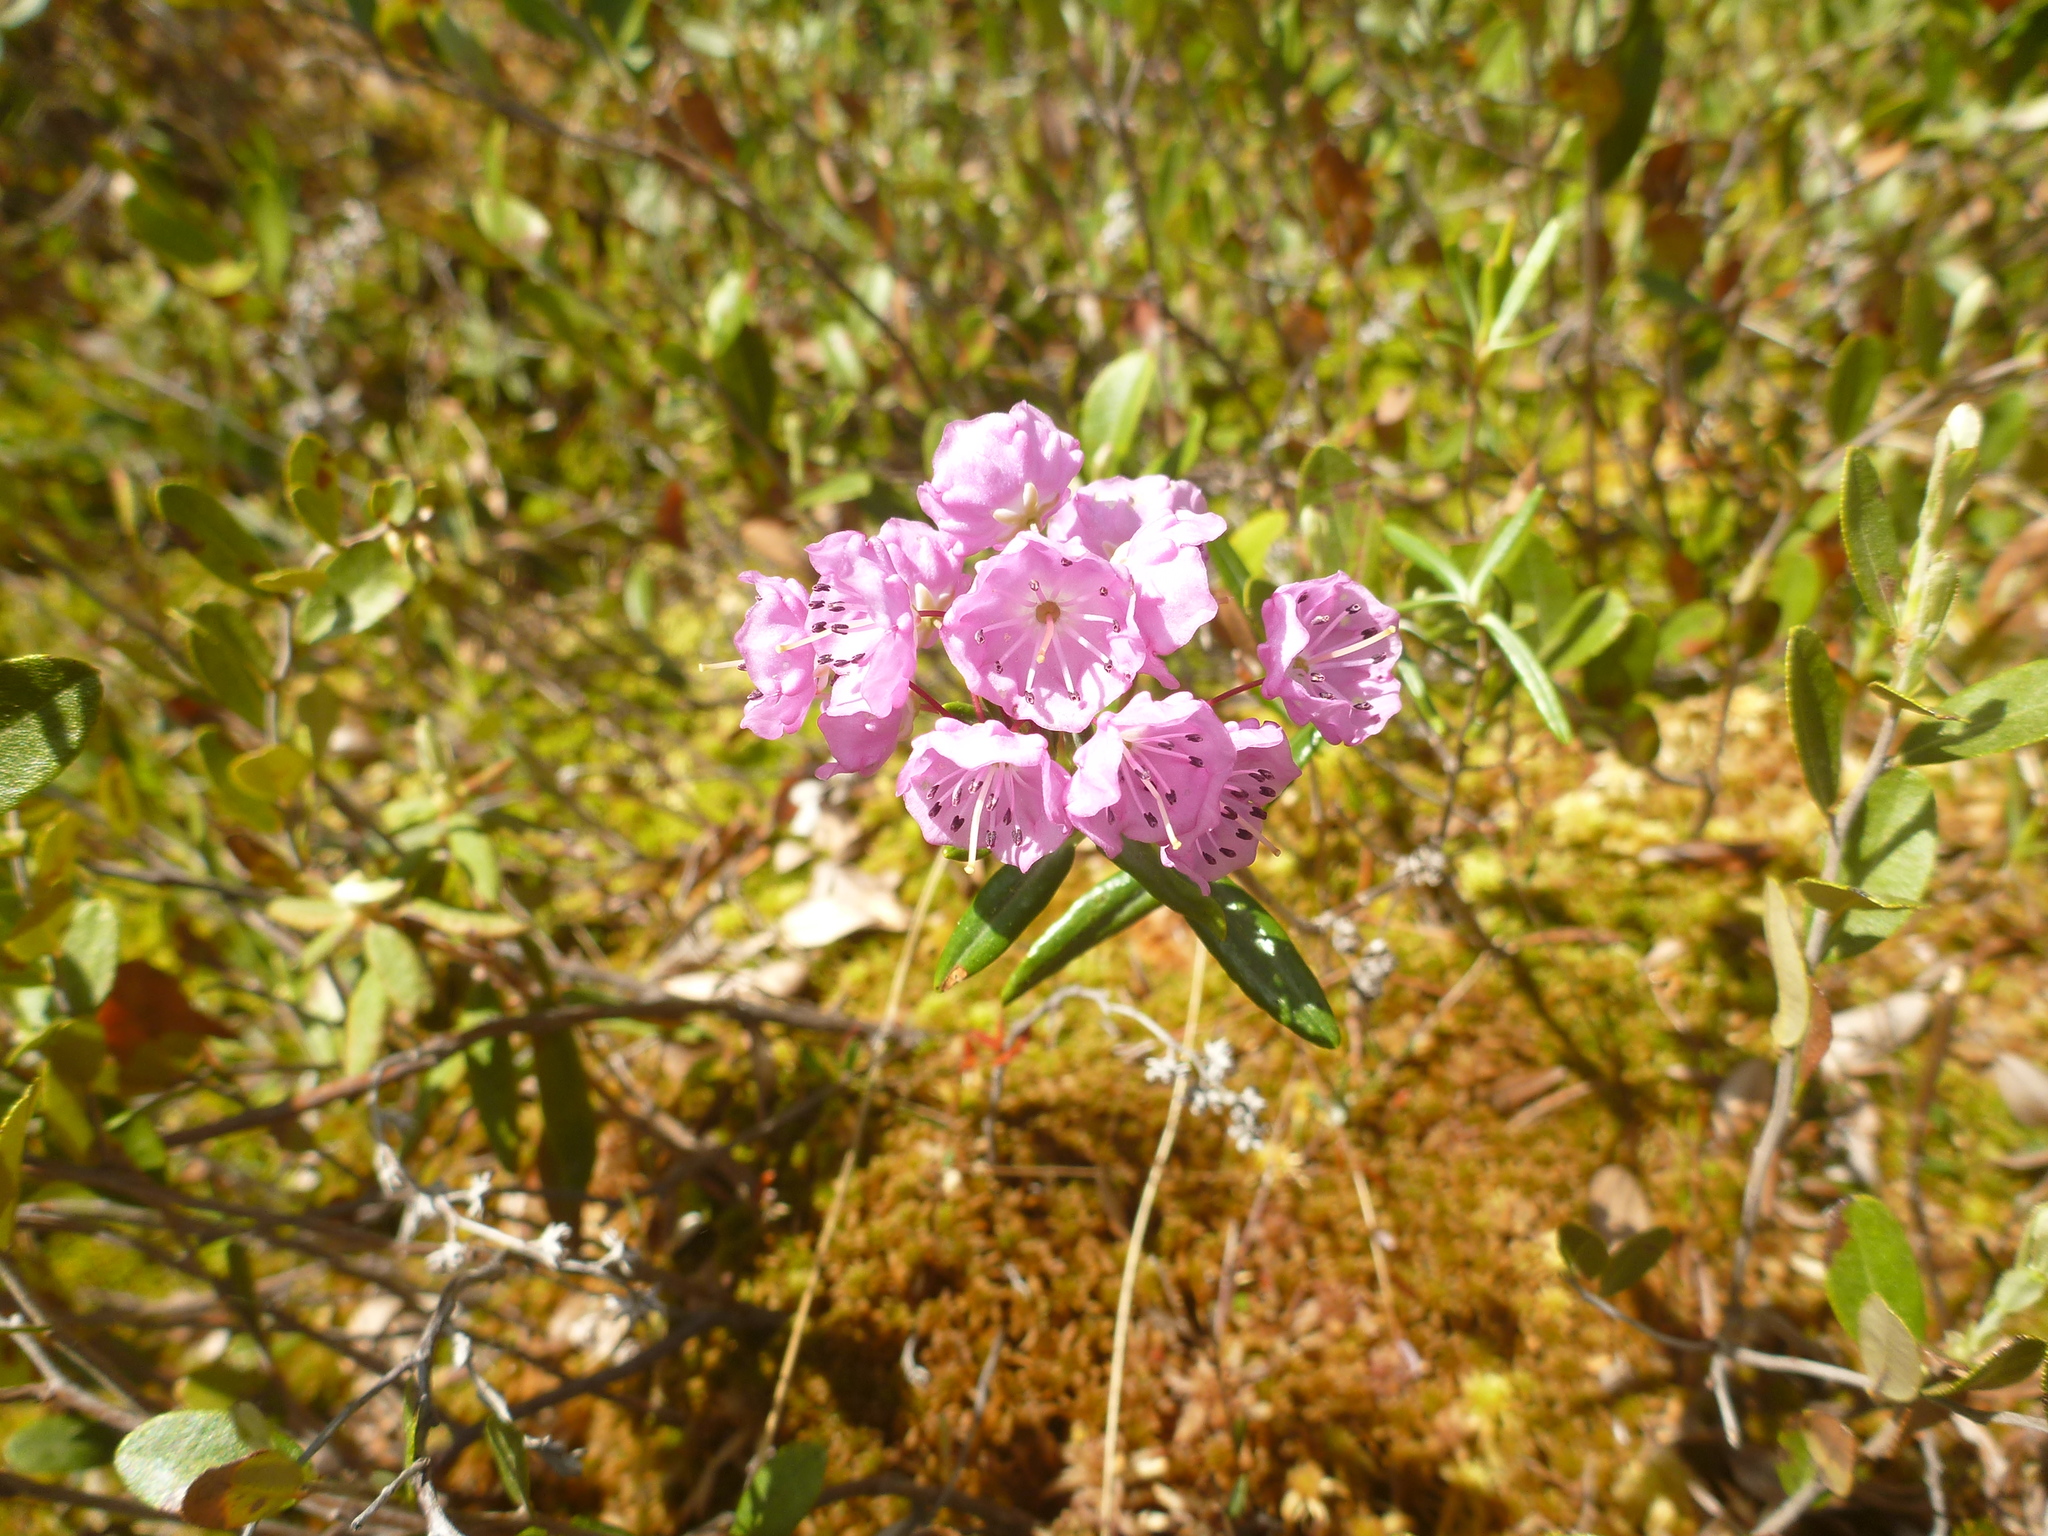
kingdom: Plantae
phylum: Tracheophyta
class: Magnoliopsida
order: Ericales
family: Ericaceae
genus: Kalmia
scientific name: Kalmia polifolia
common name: Bog-laurel
